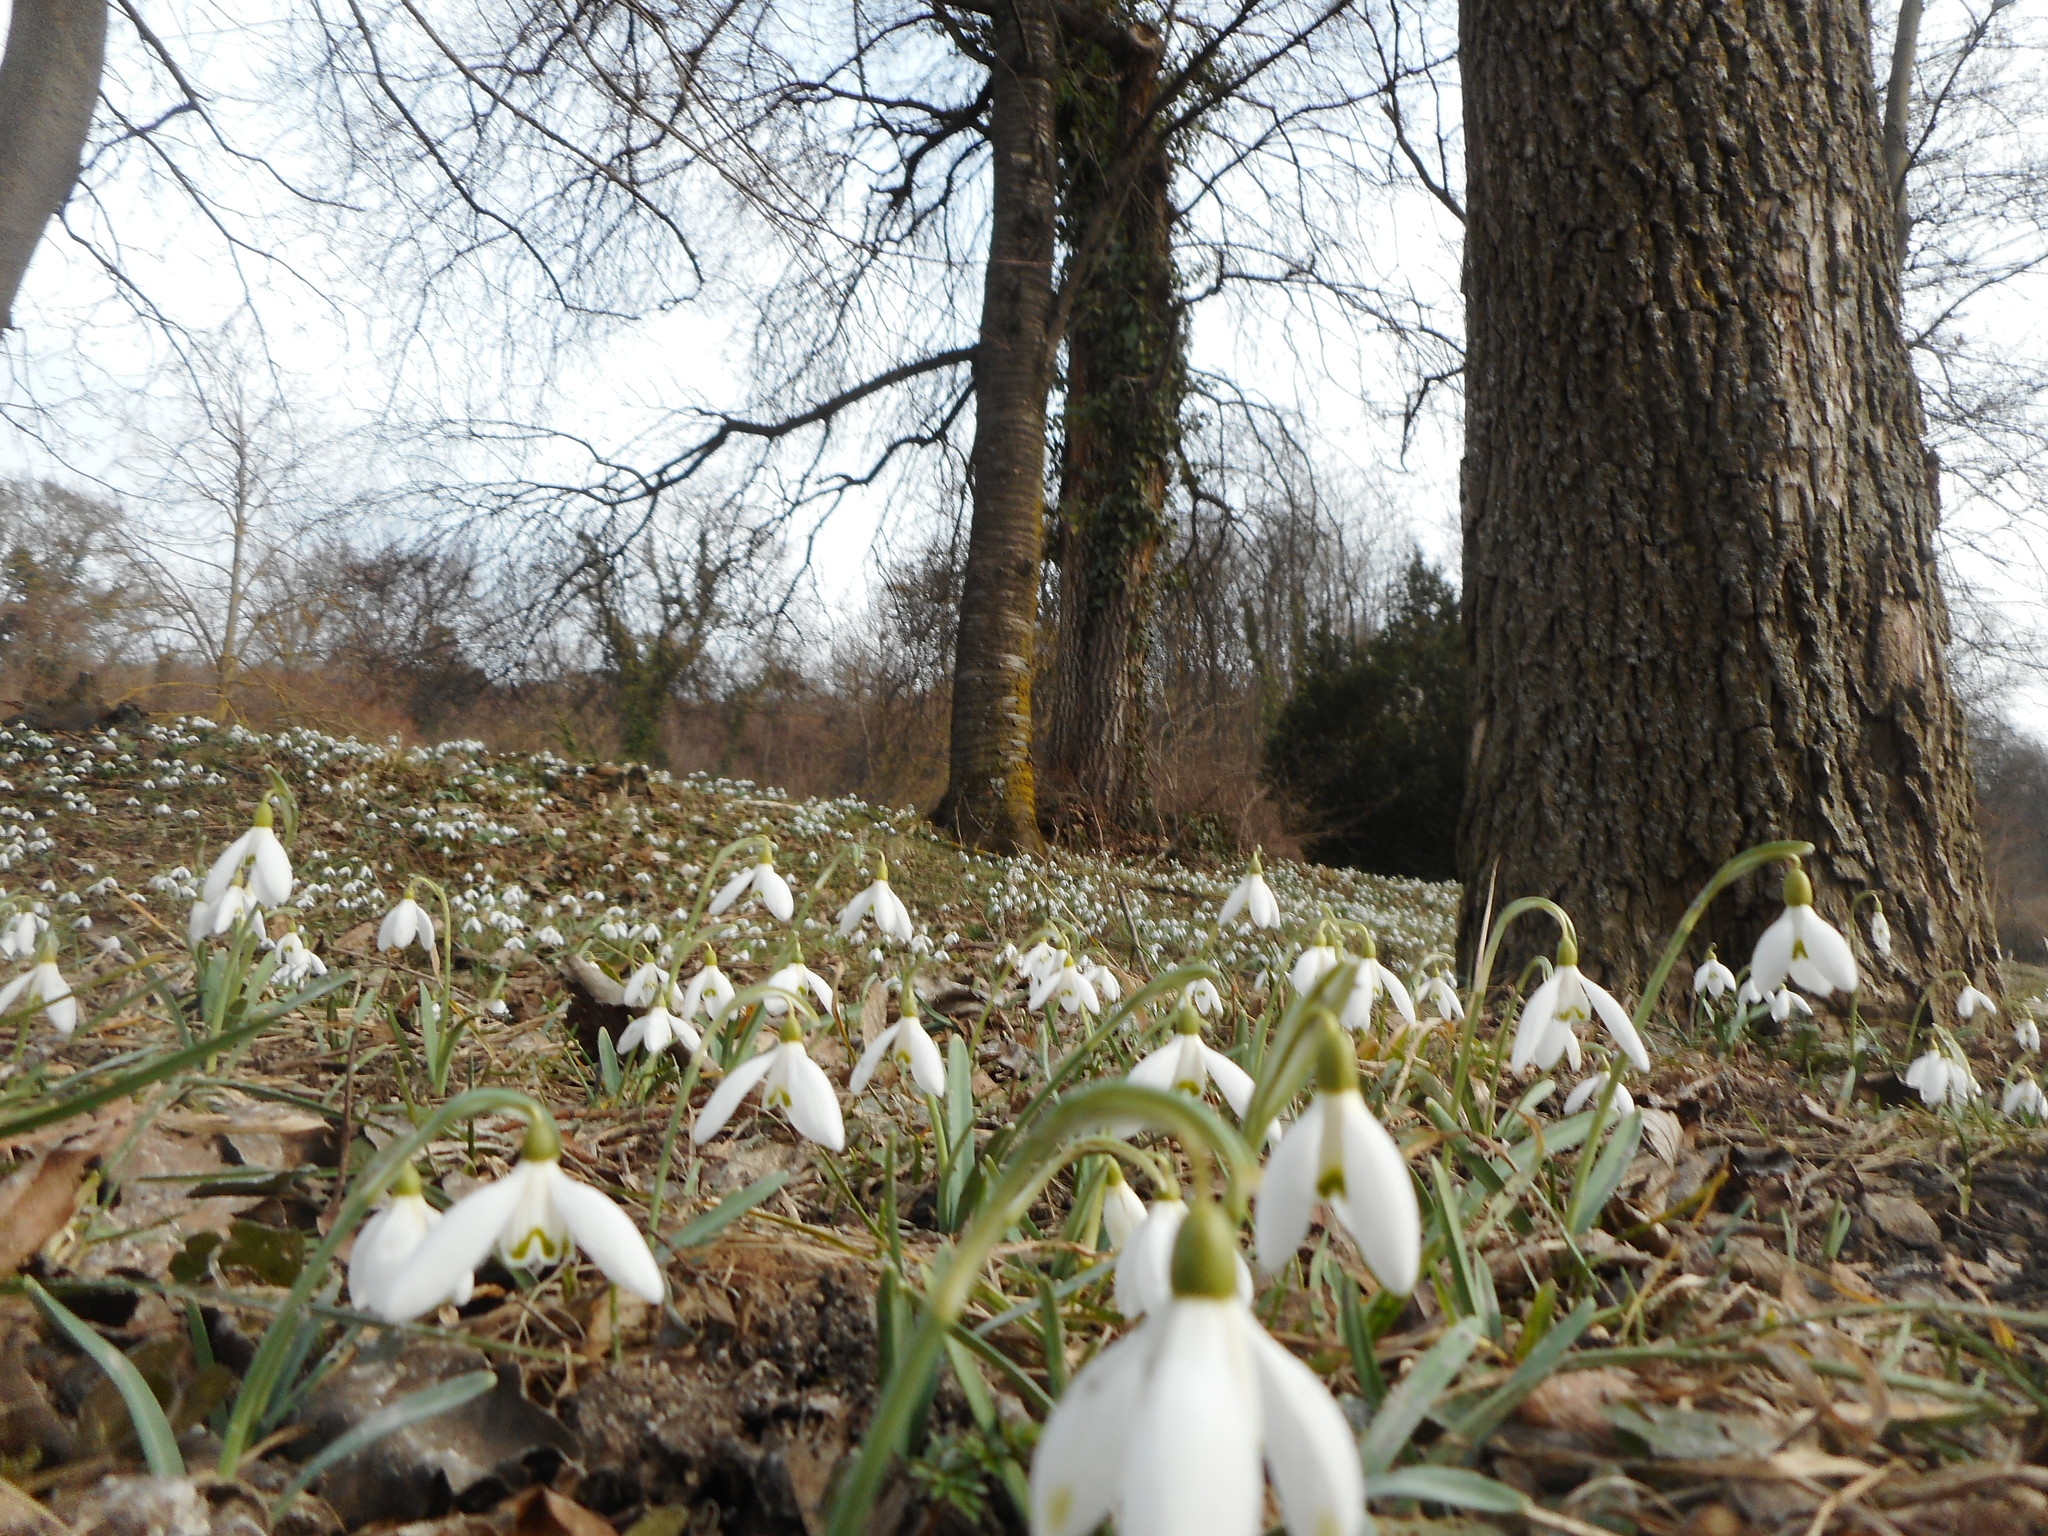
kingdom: Plantae
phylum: Tracheophyta
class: Liliopsida
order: Asparagales
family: Amaryllidaceae
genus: Galanthus
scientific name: Galanthus nivalis
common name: Snowdrop
